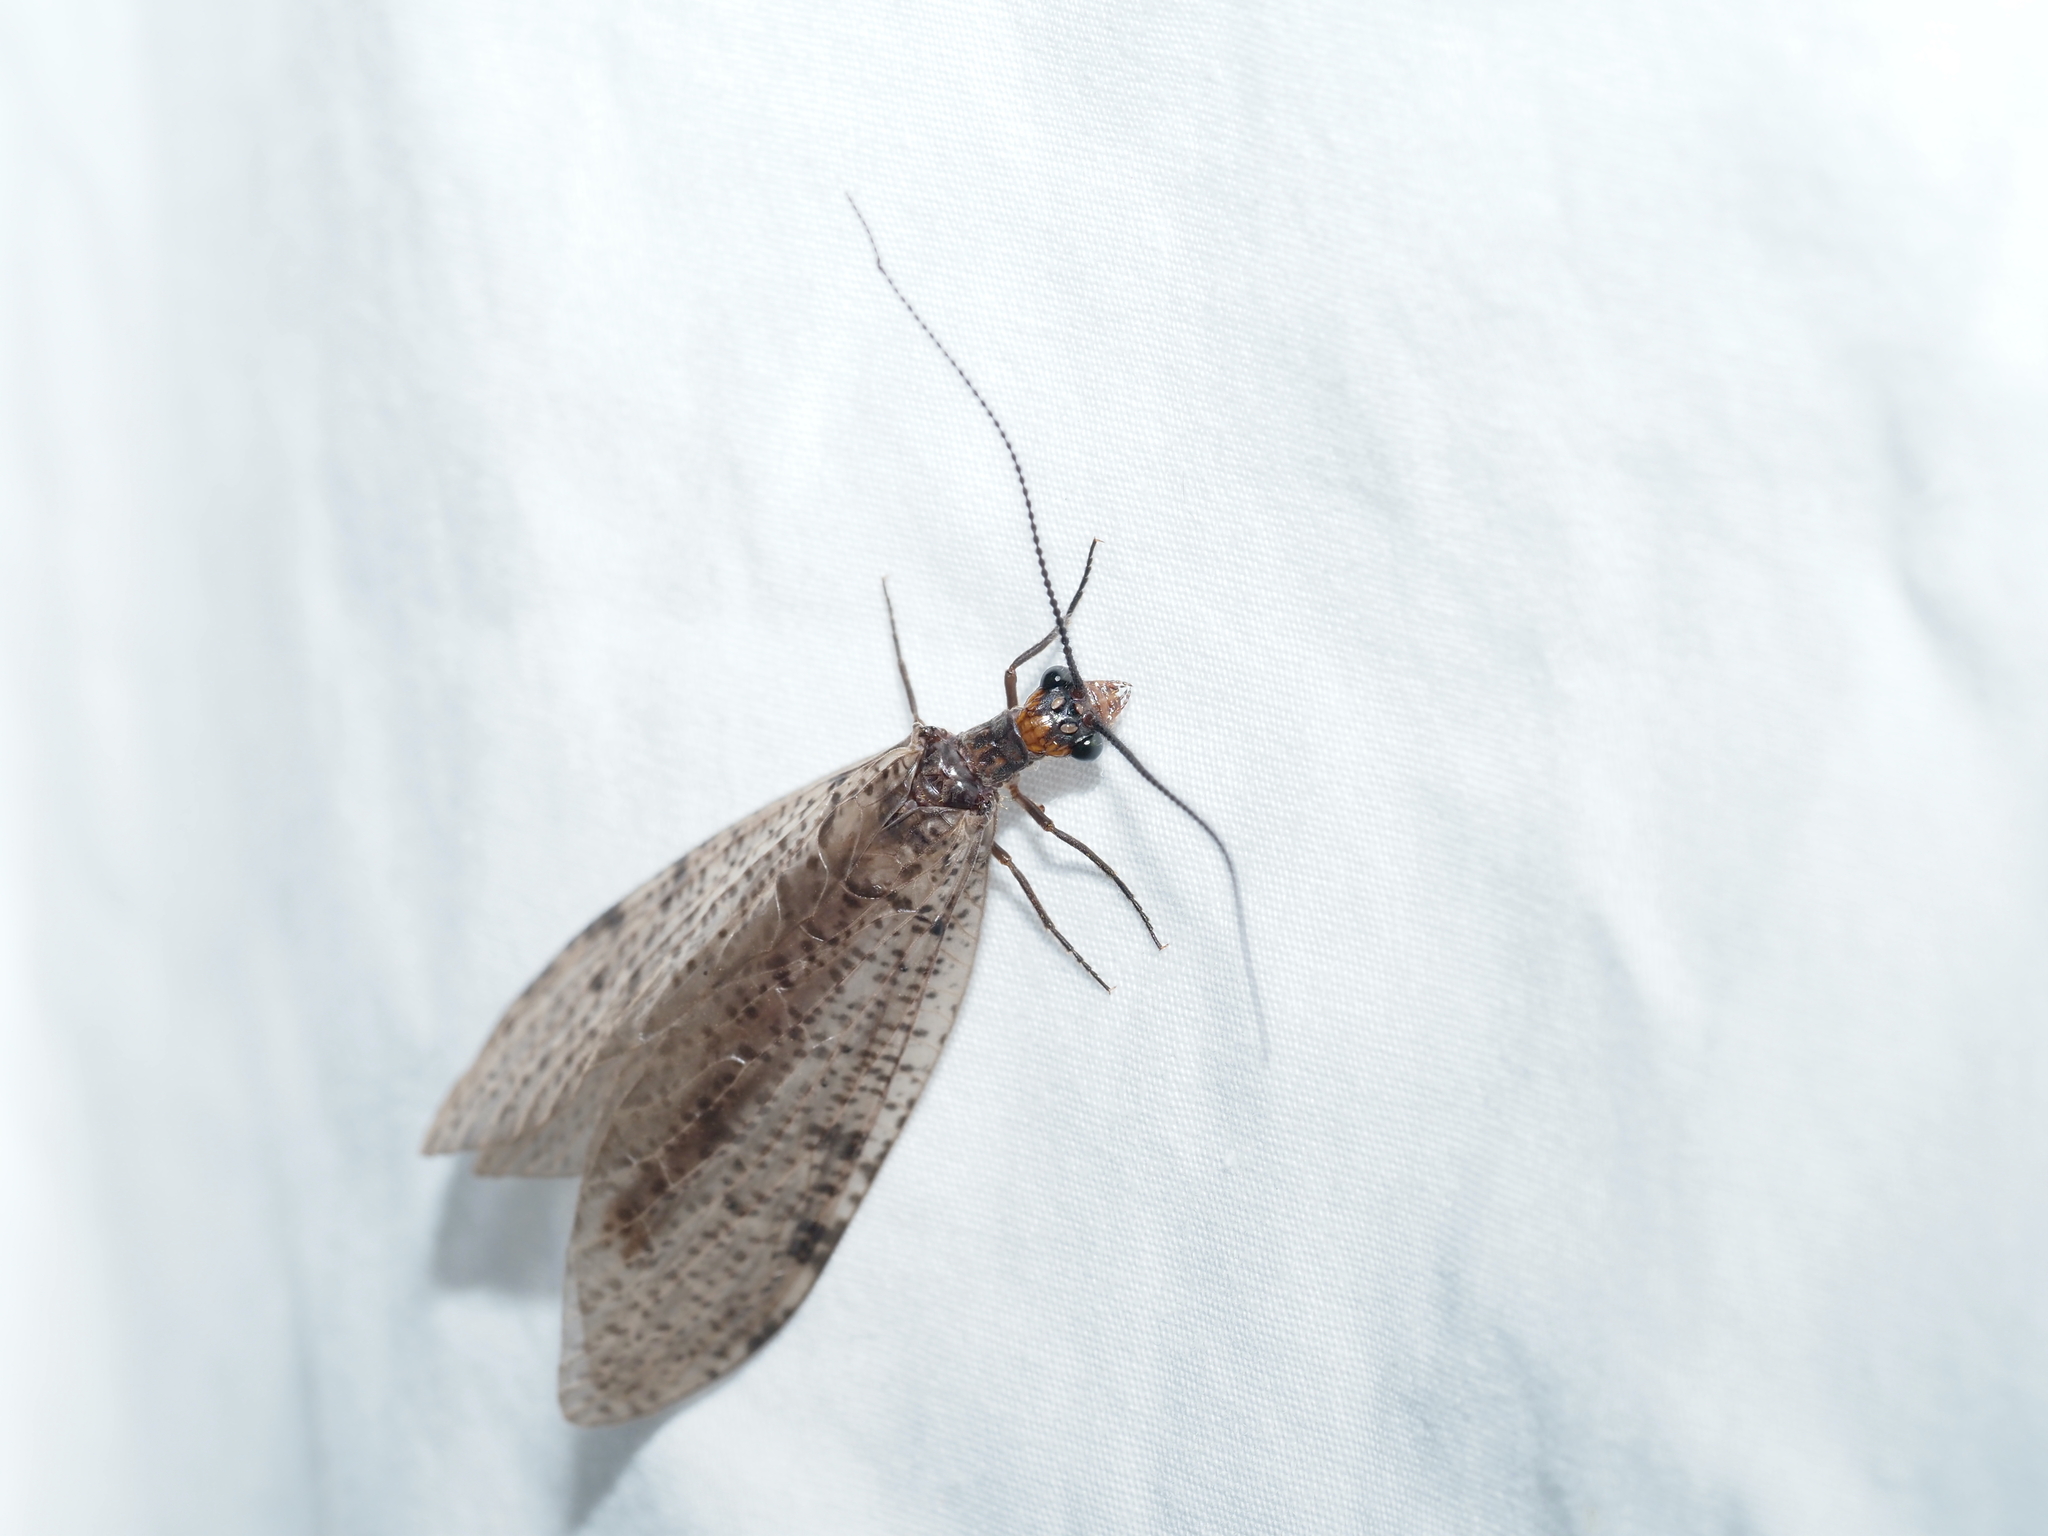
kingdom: Animalia
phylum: Arthropoda
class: Insecta
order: Megaloptera
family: Corydalidae
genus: Neohermes
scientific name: Neohermes concolor
